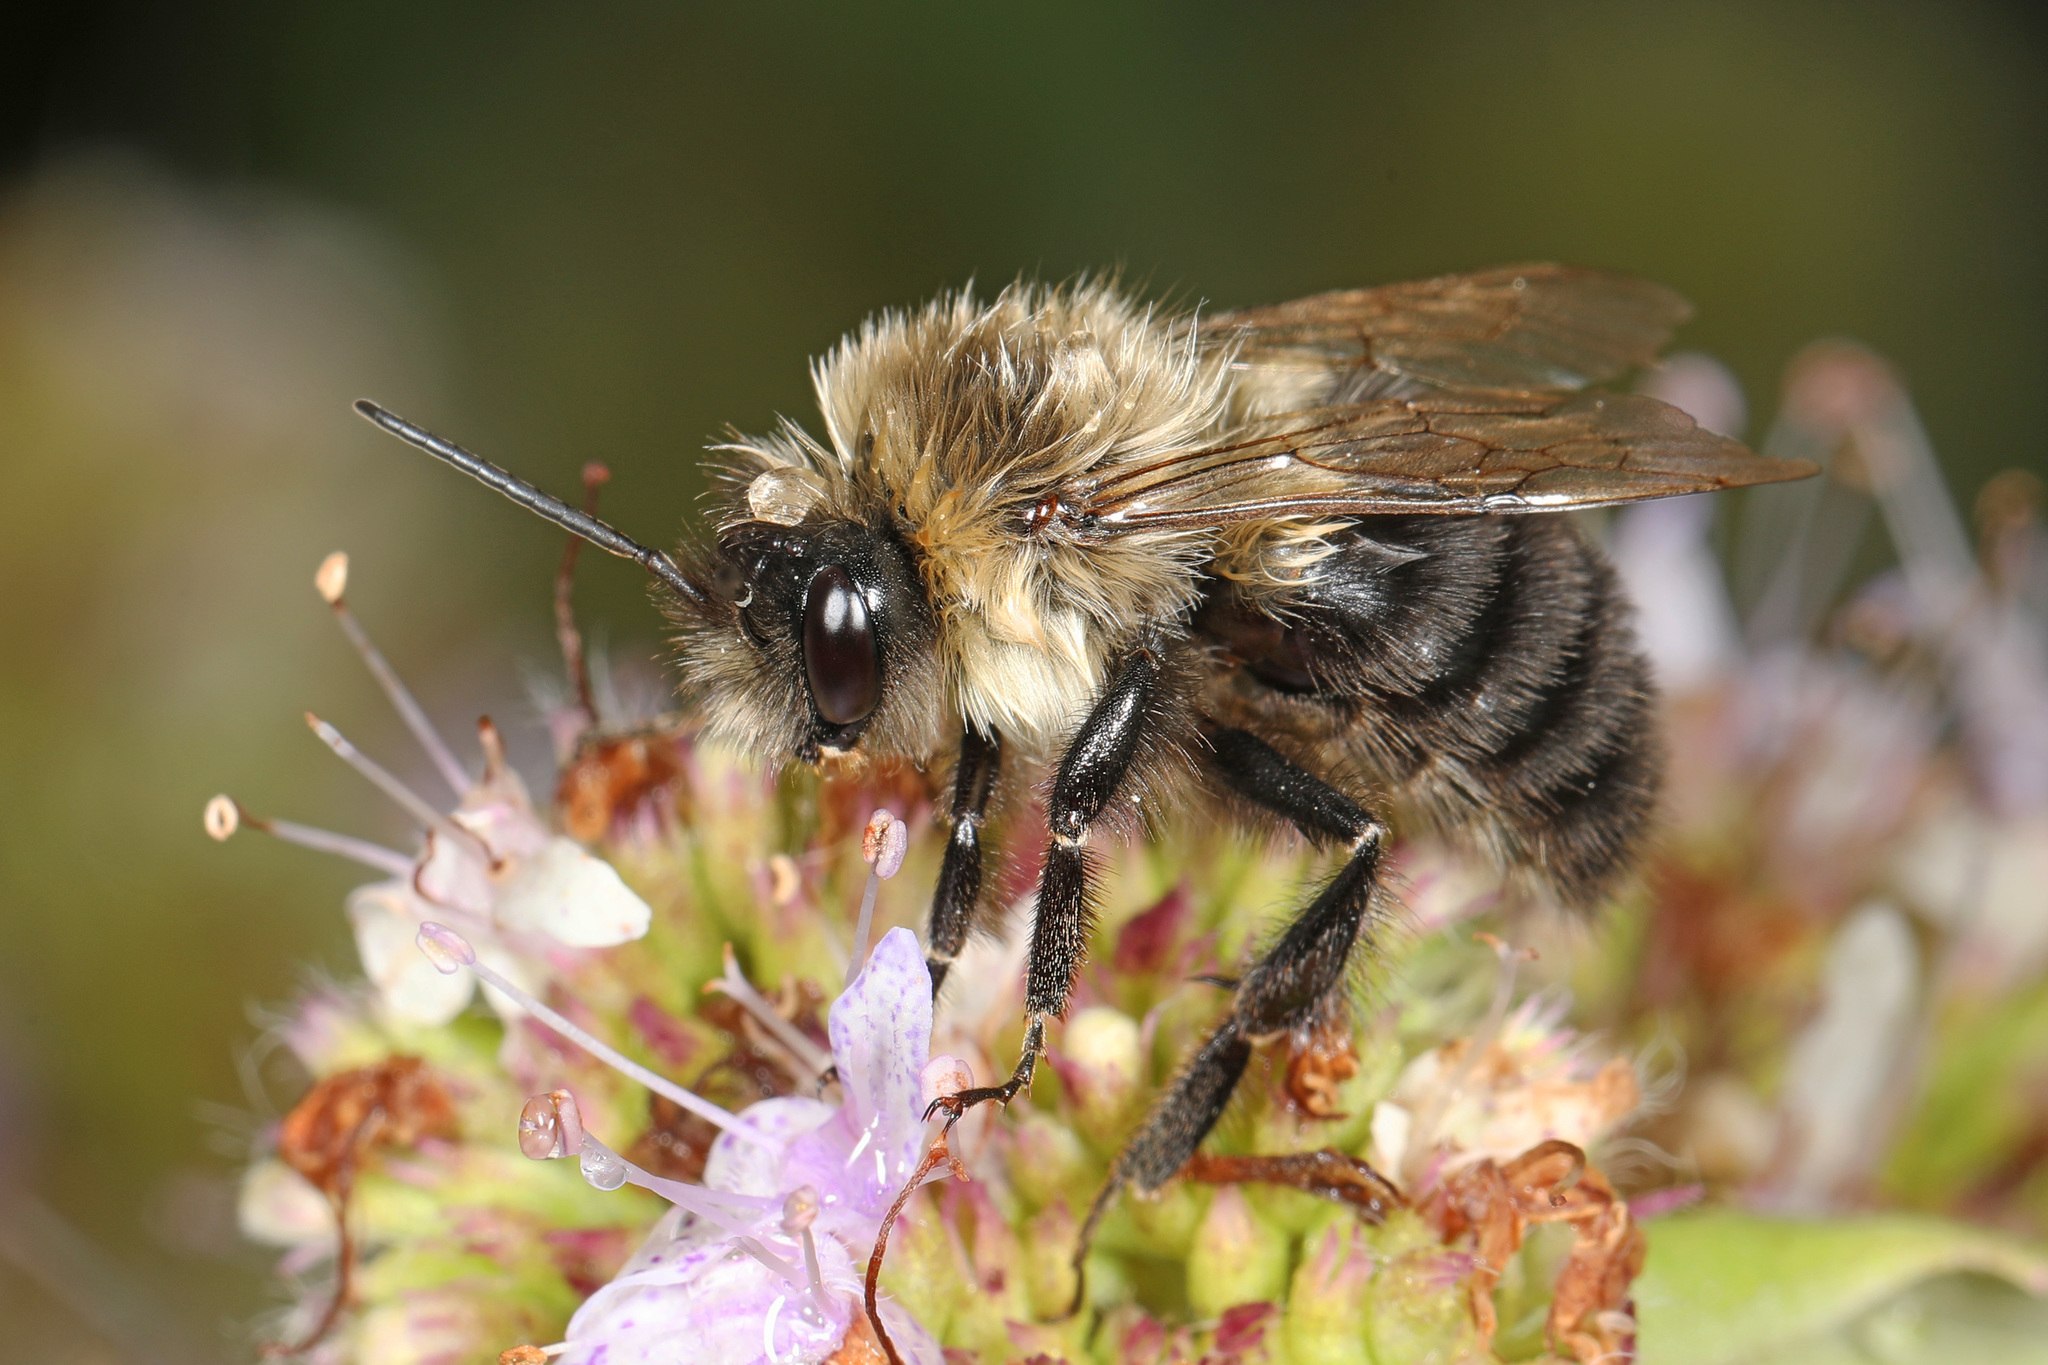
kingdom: Animalia
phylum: Arthropoda
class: Insecta
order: Hymenoptera
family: Apidae
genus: Bombus
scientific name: Bombus impatiens
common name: Common eastern bumble bee
